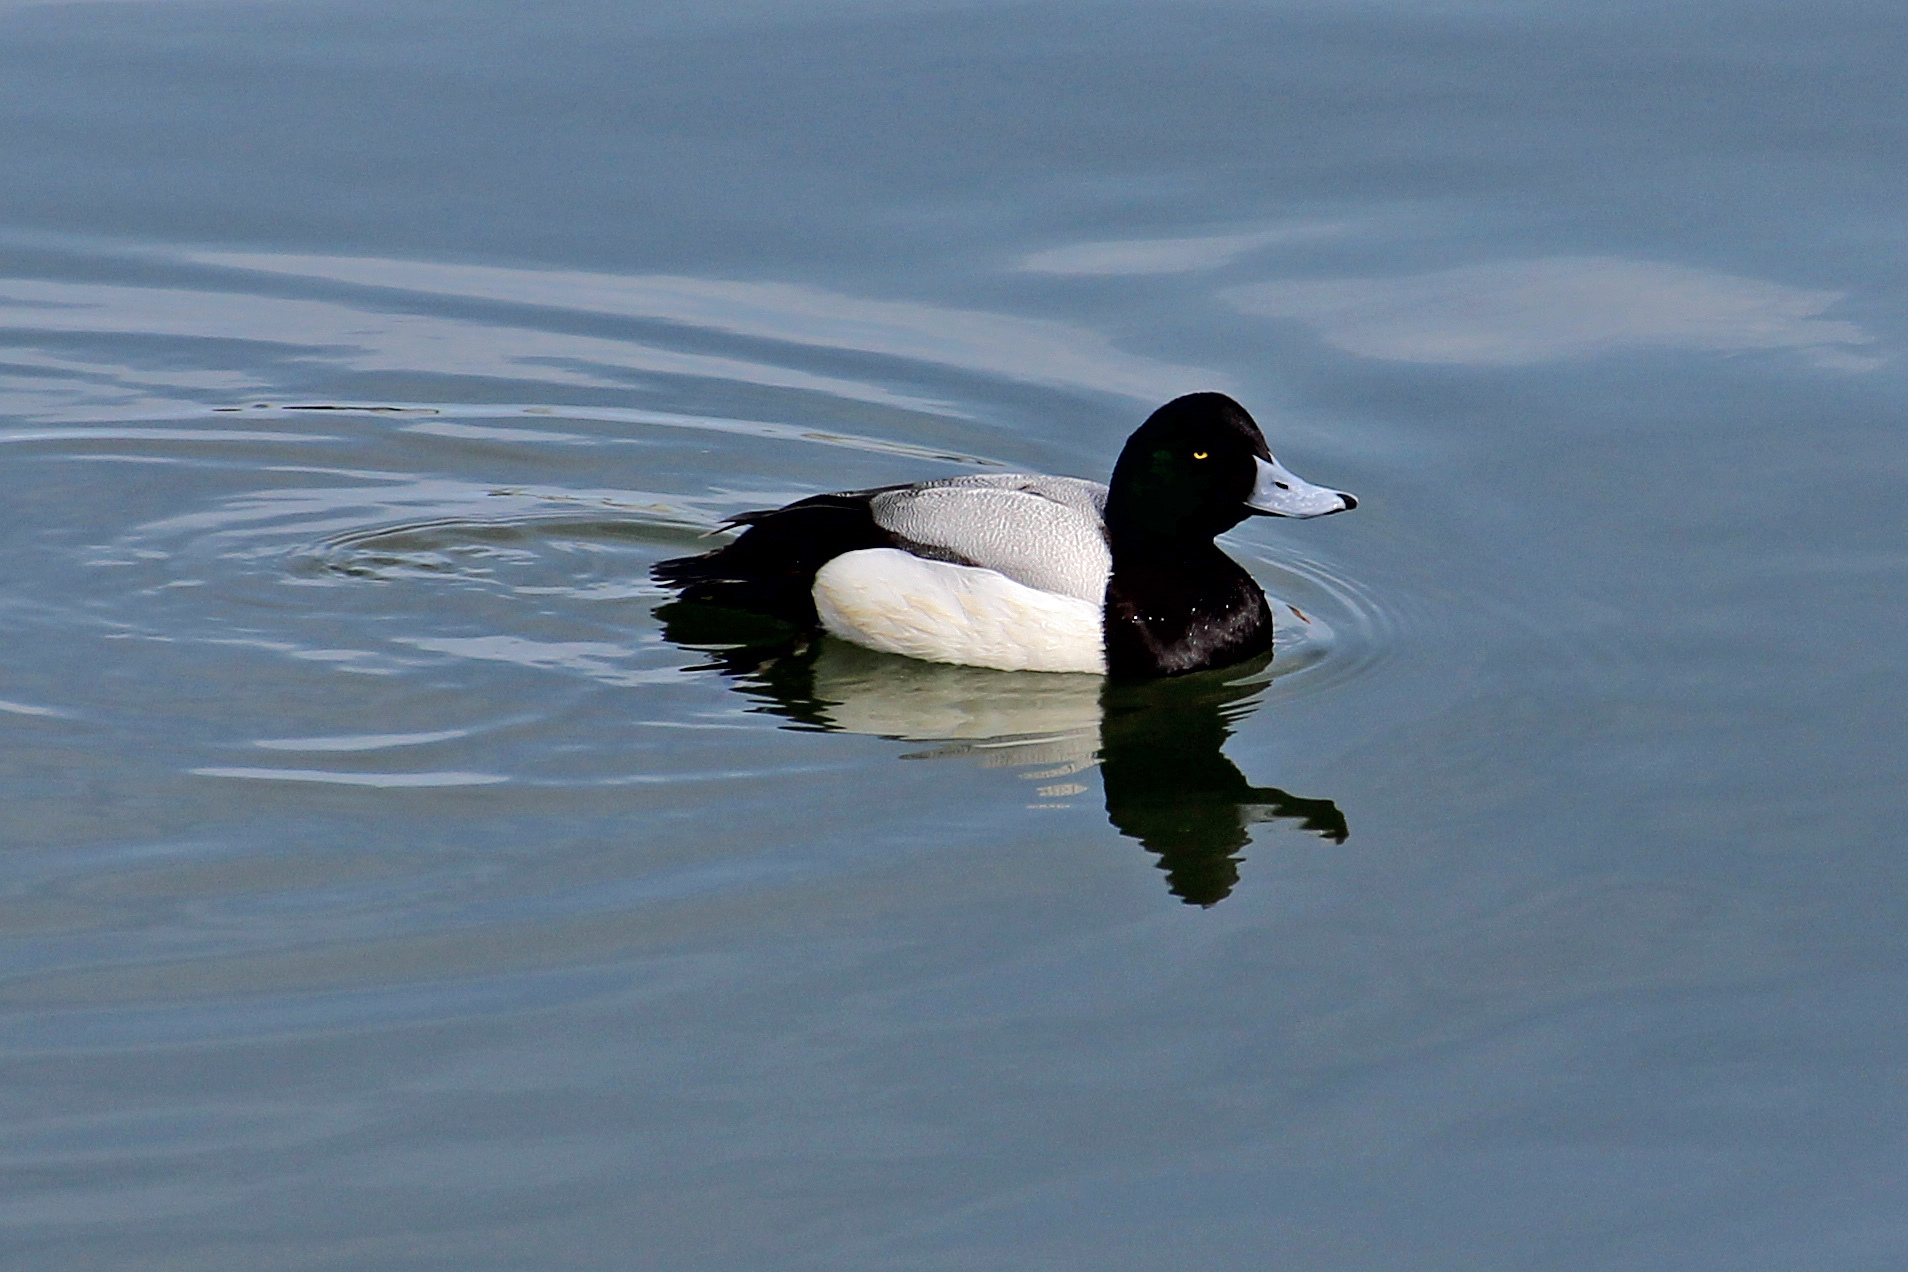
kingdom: Animalia
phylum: Chordata
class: Aves
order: Anseriformes
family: Anatidae
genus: Aythya
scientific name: Aythya marila
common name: Greater scaup
